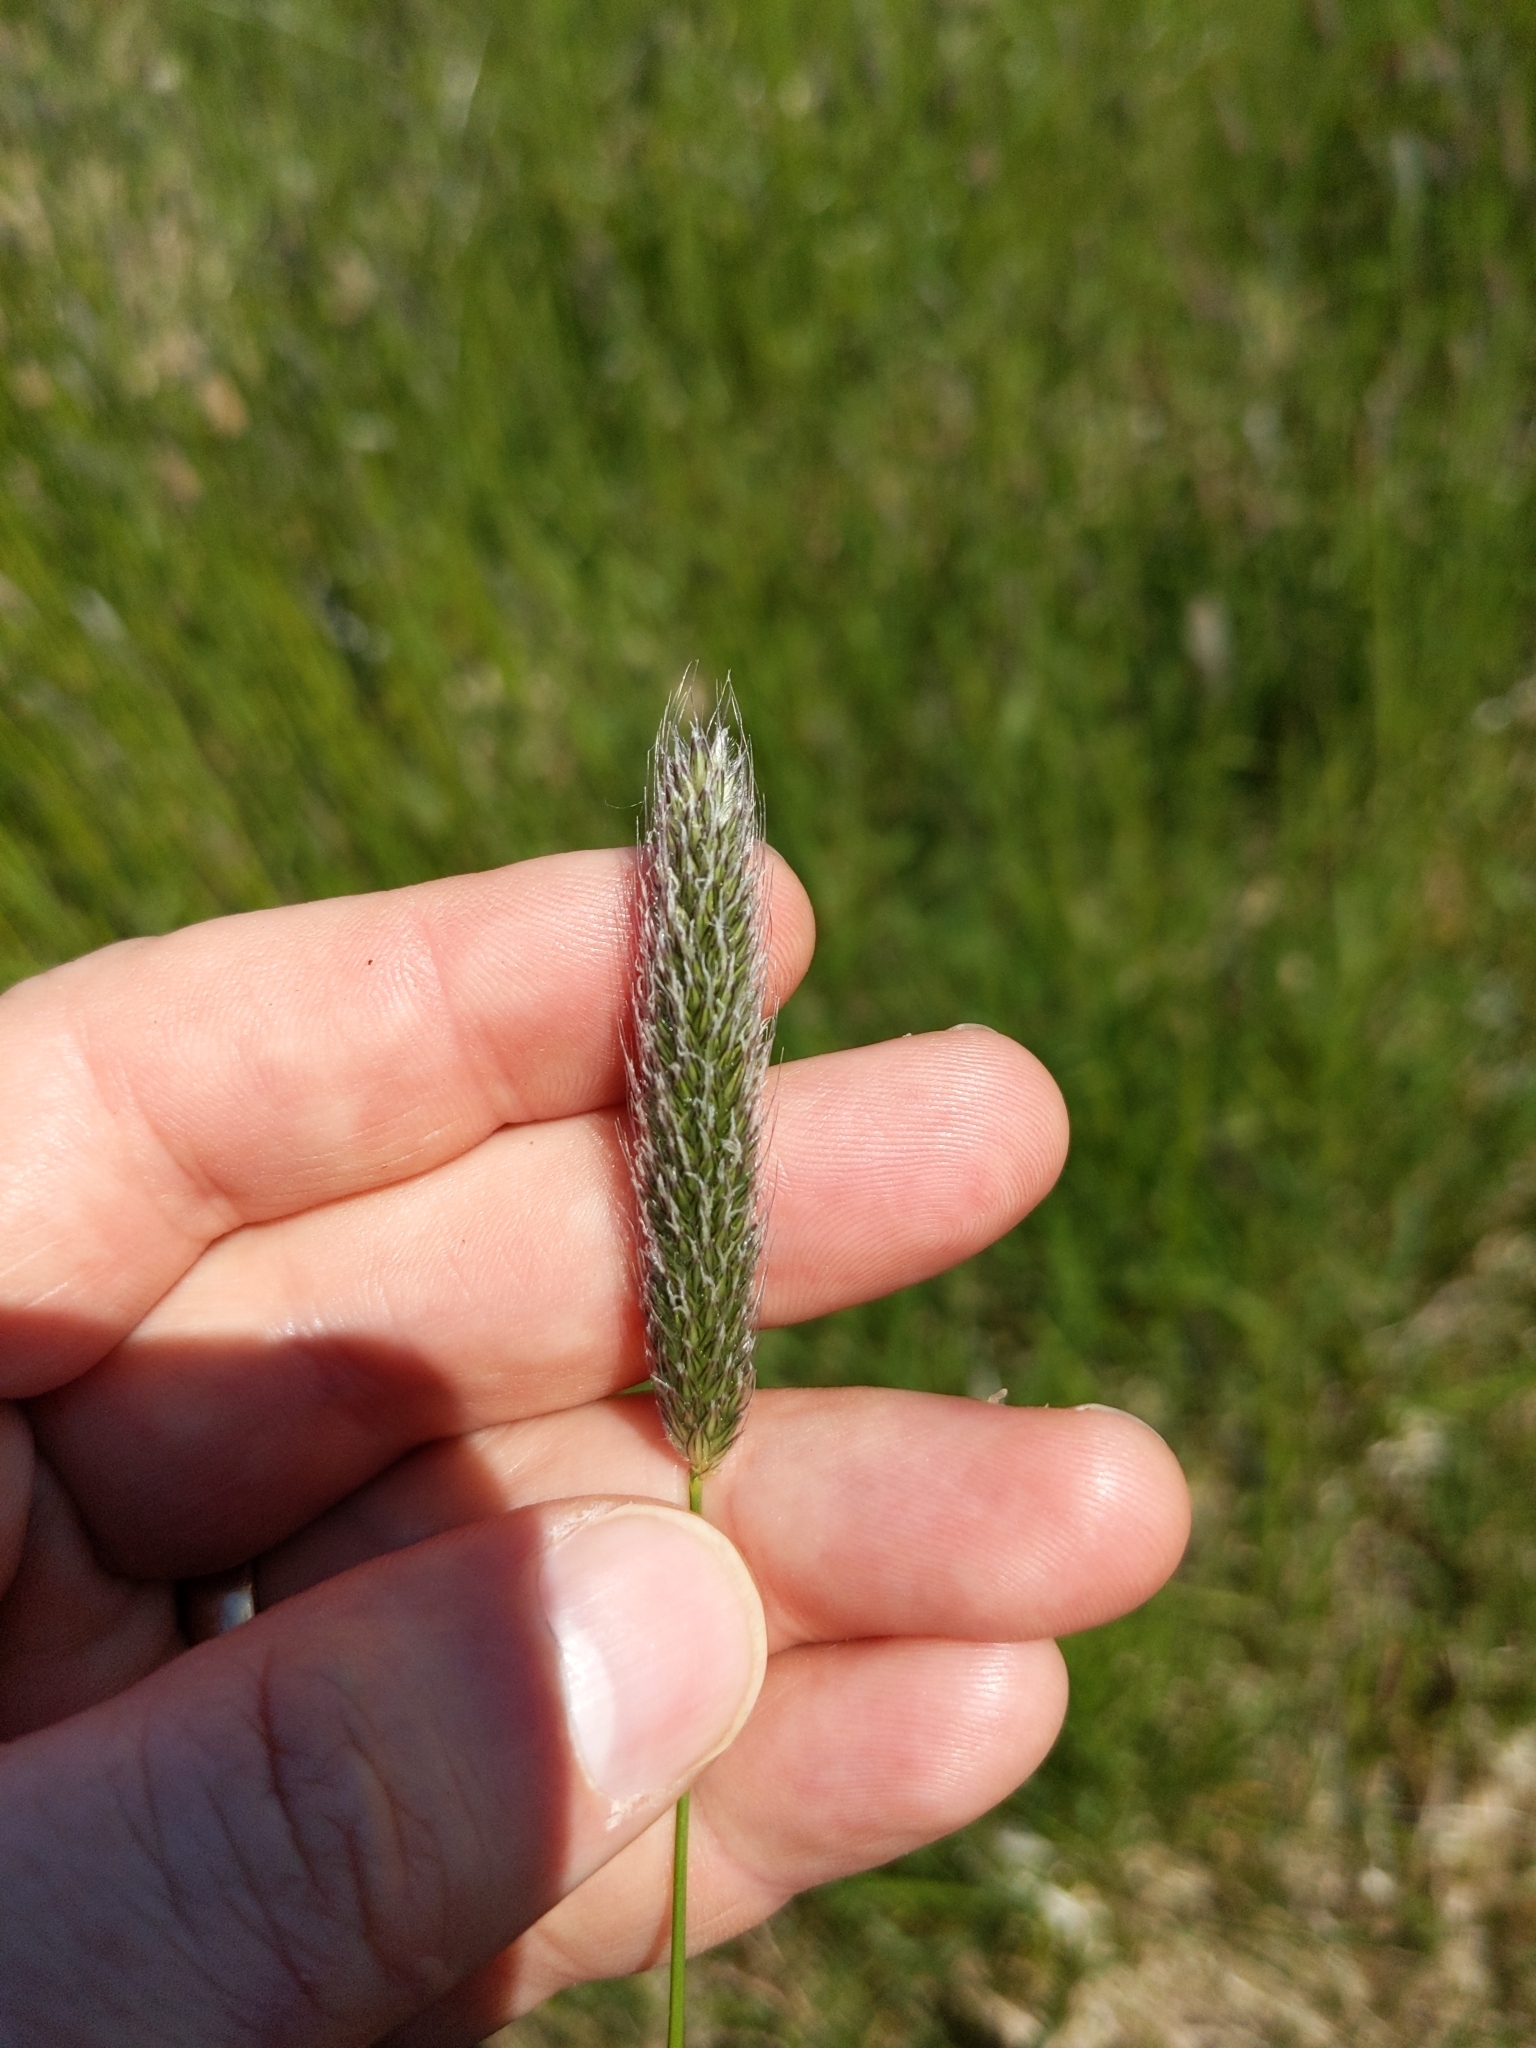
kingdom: Plantae
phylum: Tracheophyta
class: Liliopsida
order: Poales
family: Poaceae
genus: Alopecurus
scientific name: Alopecurus pratensis
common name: Meadow foxtail
